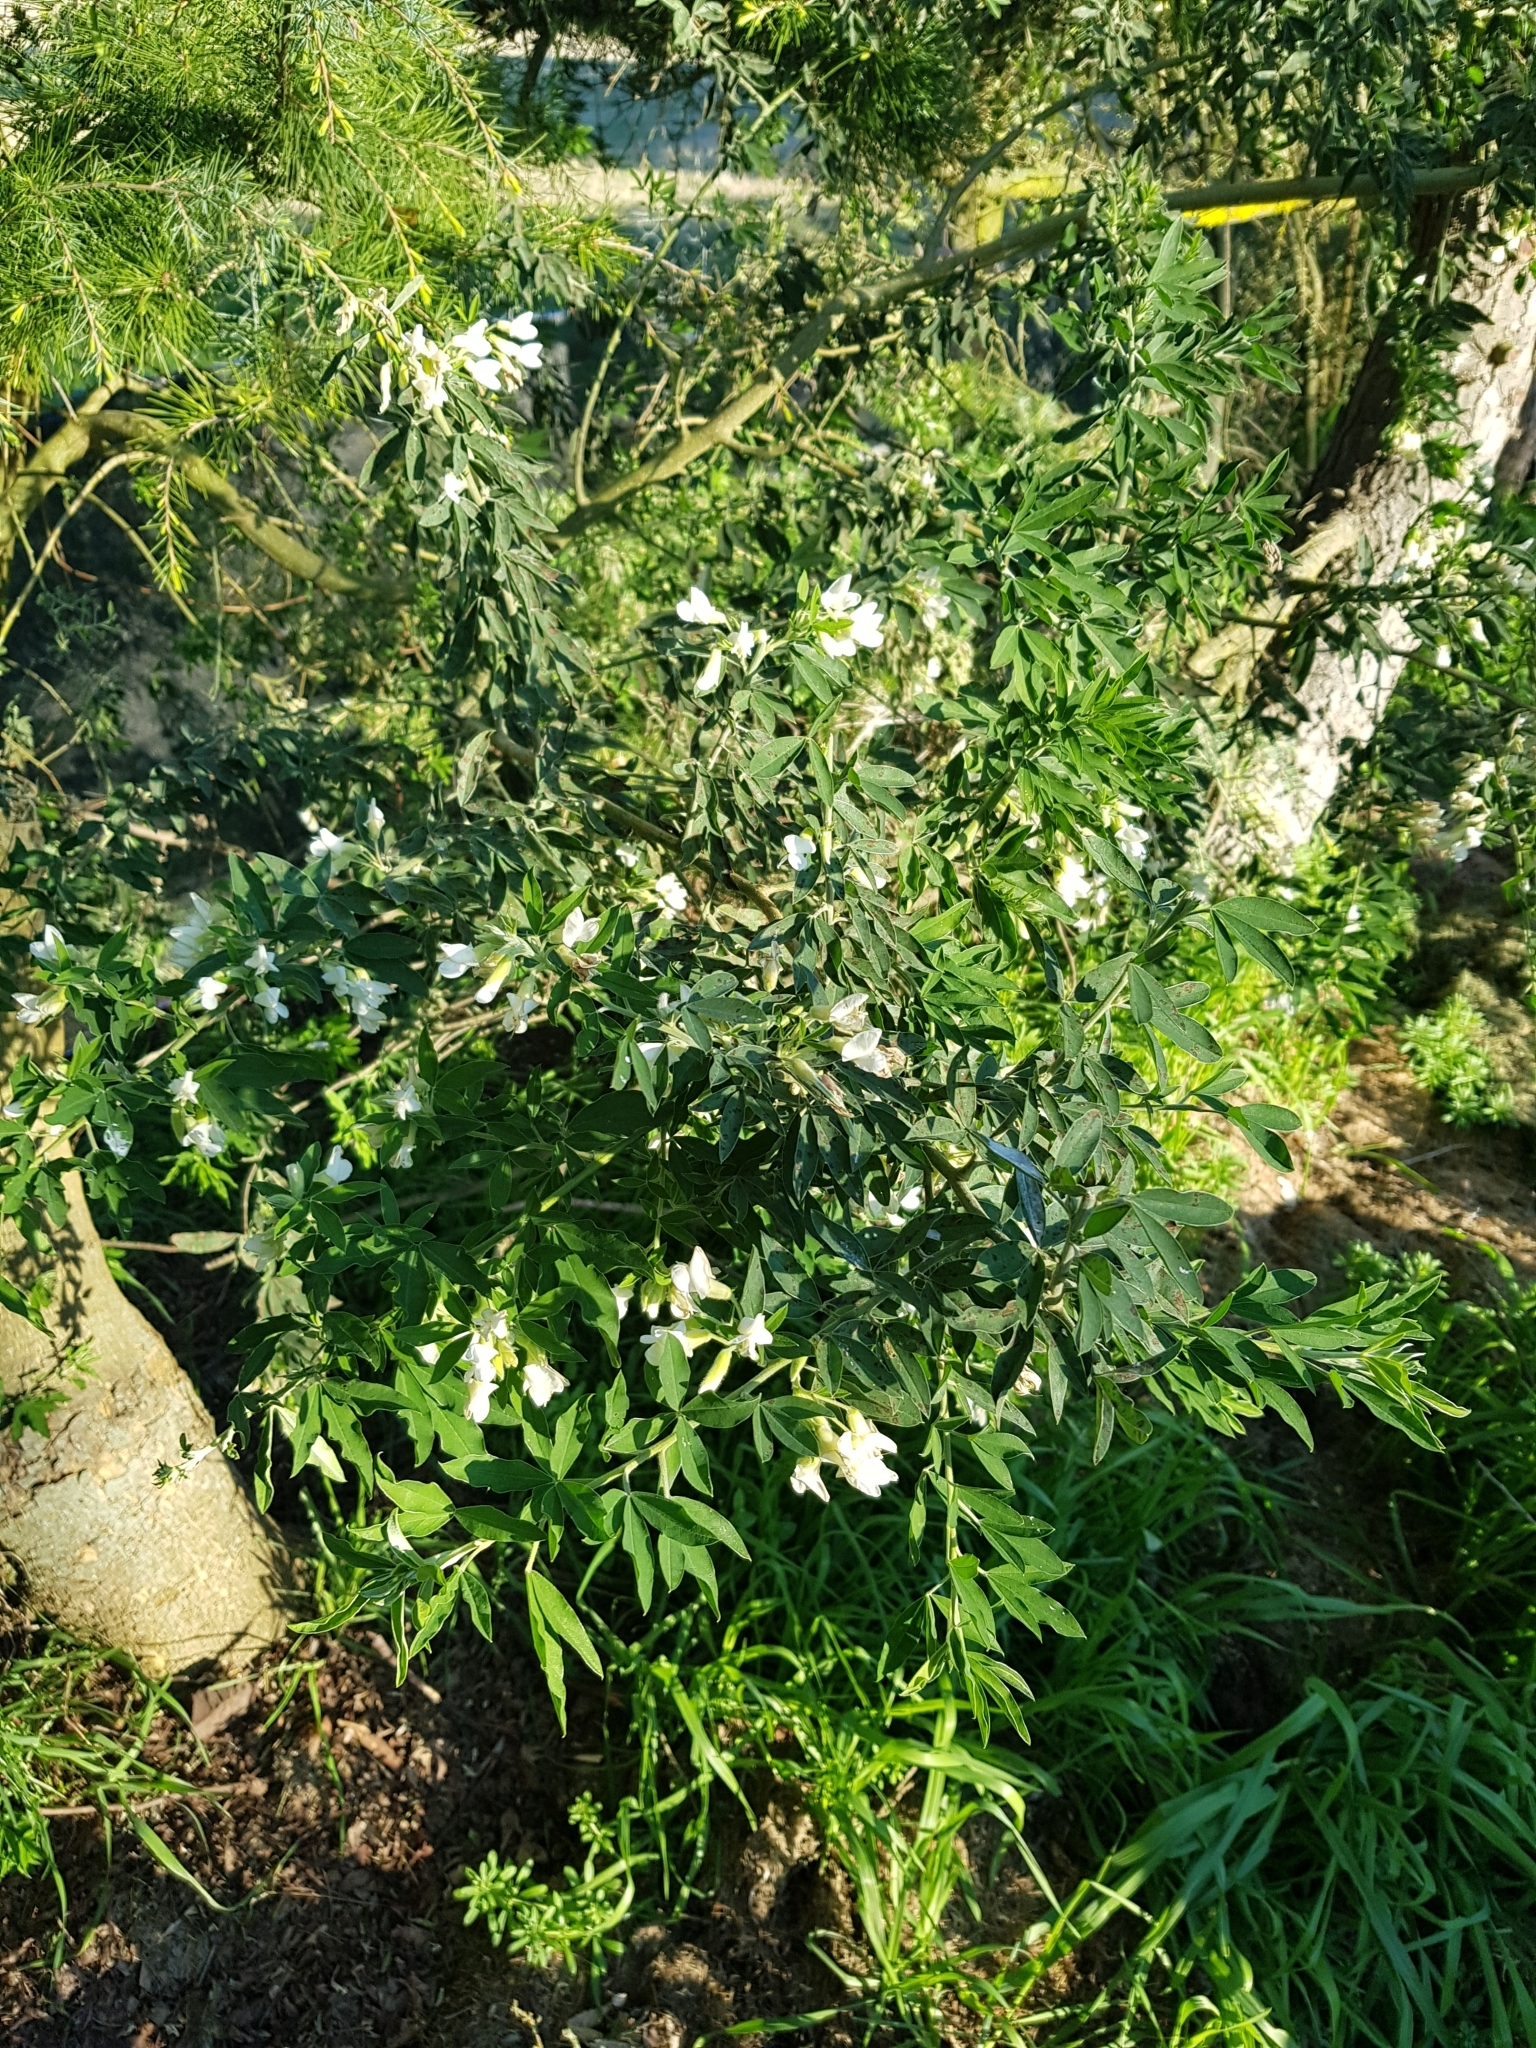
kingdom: Plantae
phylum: Tracheophyta
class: Magnoliopsida
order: Fabales
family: Fabaceae
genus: Chamaecytisus
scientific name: Chamaecytisus prolifer
